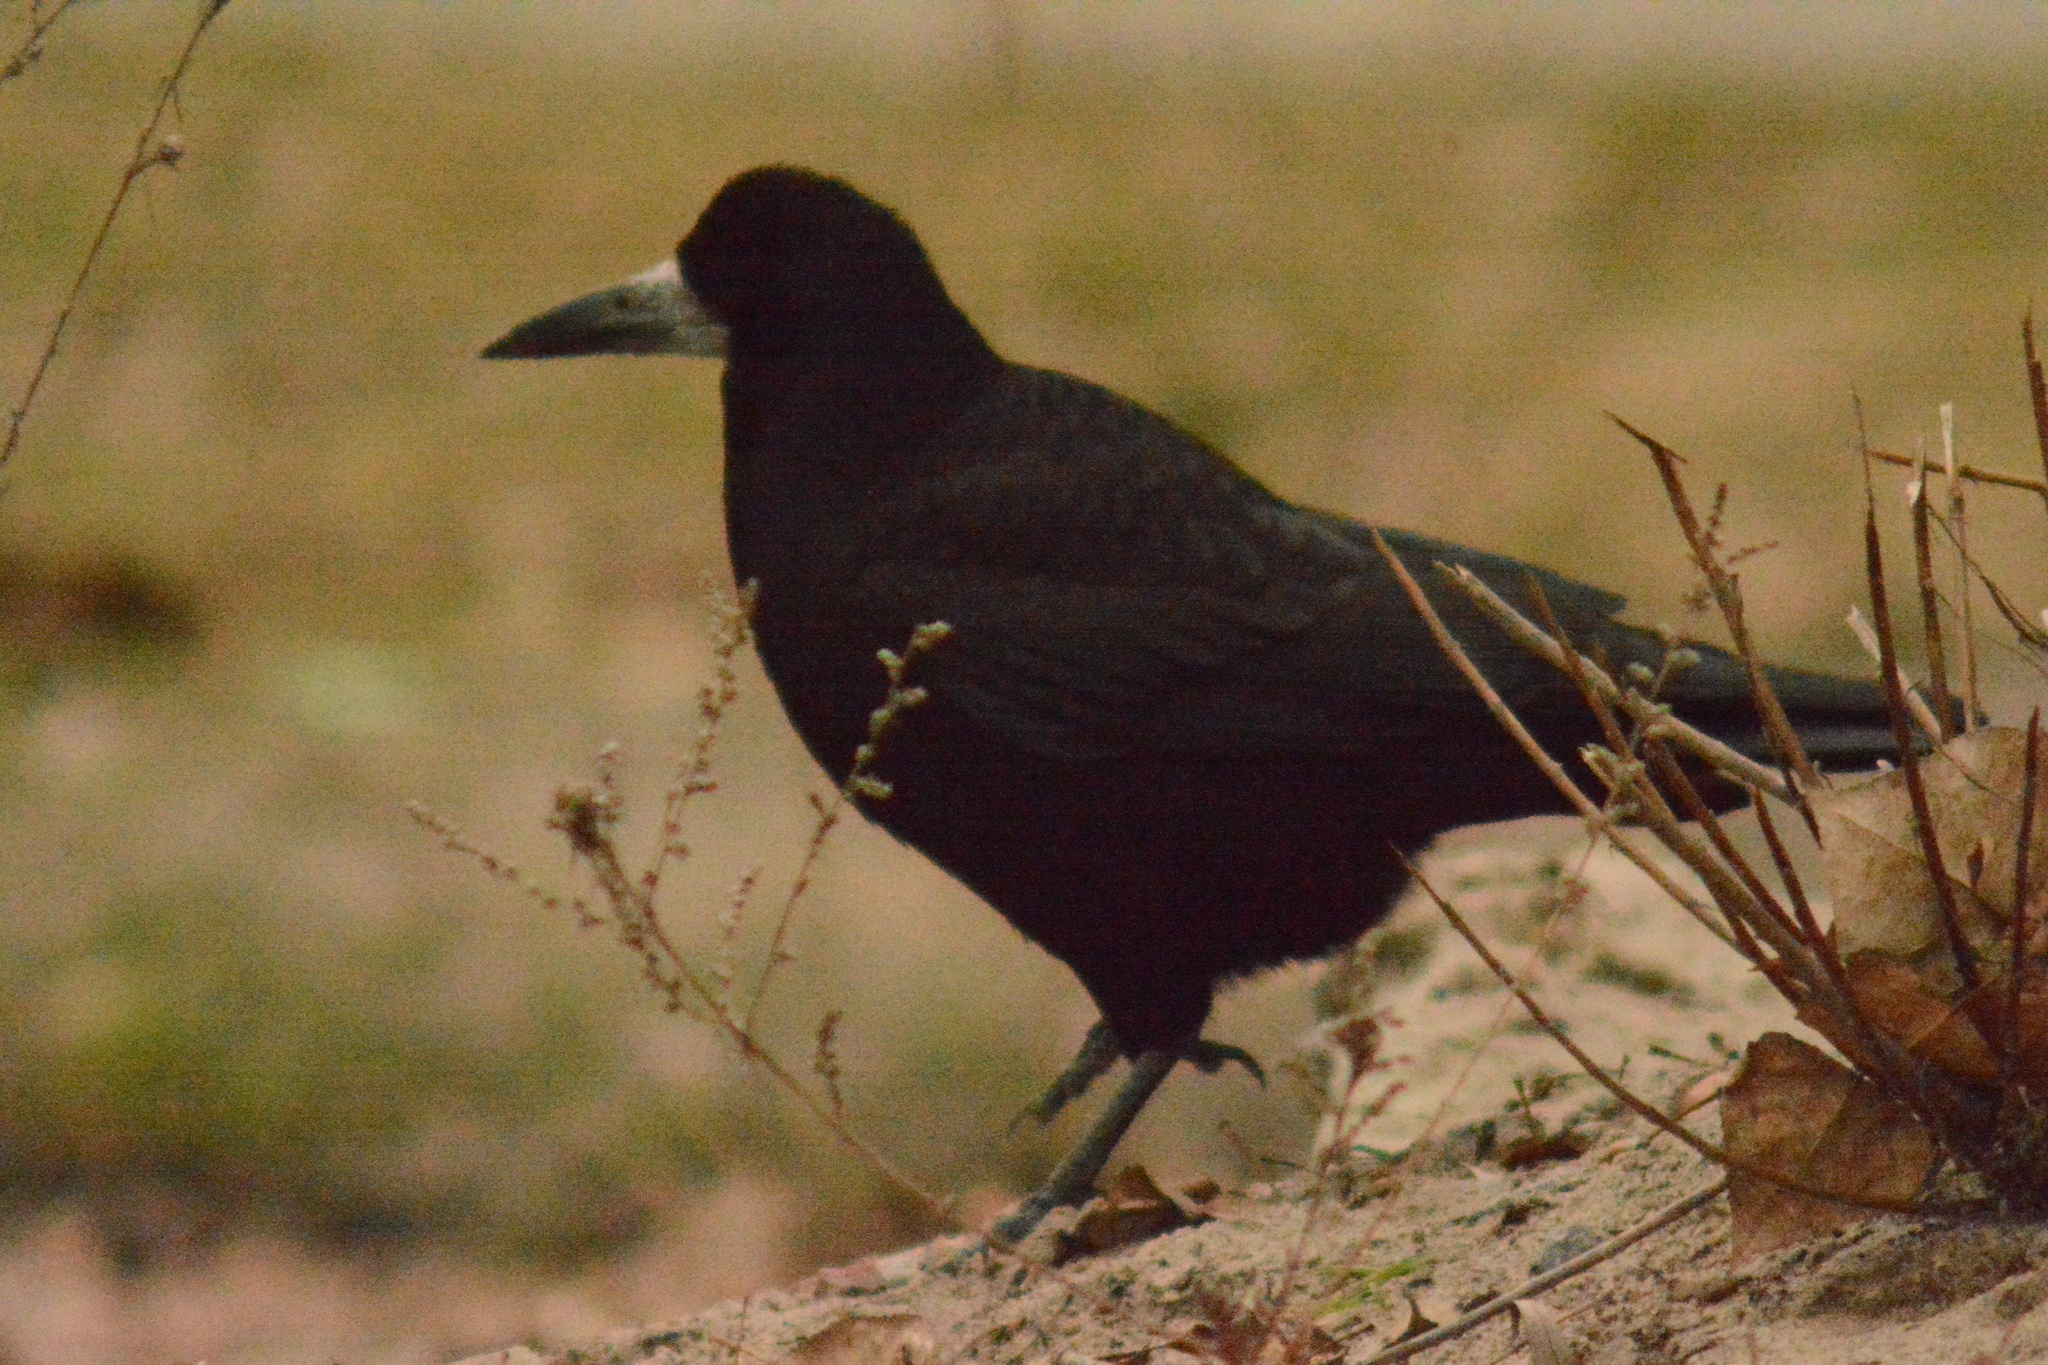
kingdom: Animalia
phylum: Chordata
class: Aves
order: Passeriformes
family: Corvidae
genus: Corvus
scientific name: Corvus frugilegus
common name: Rook
